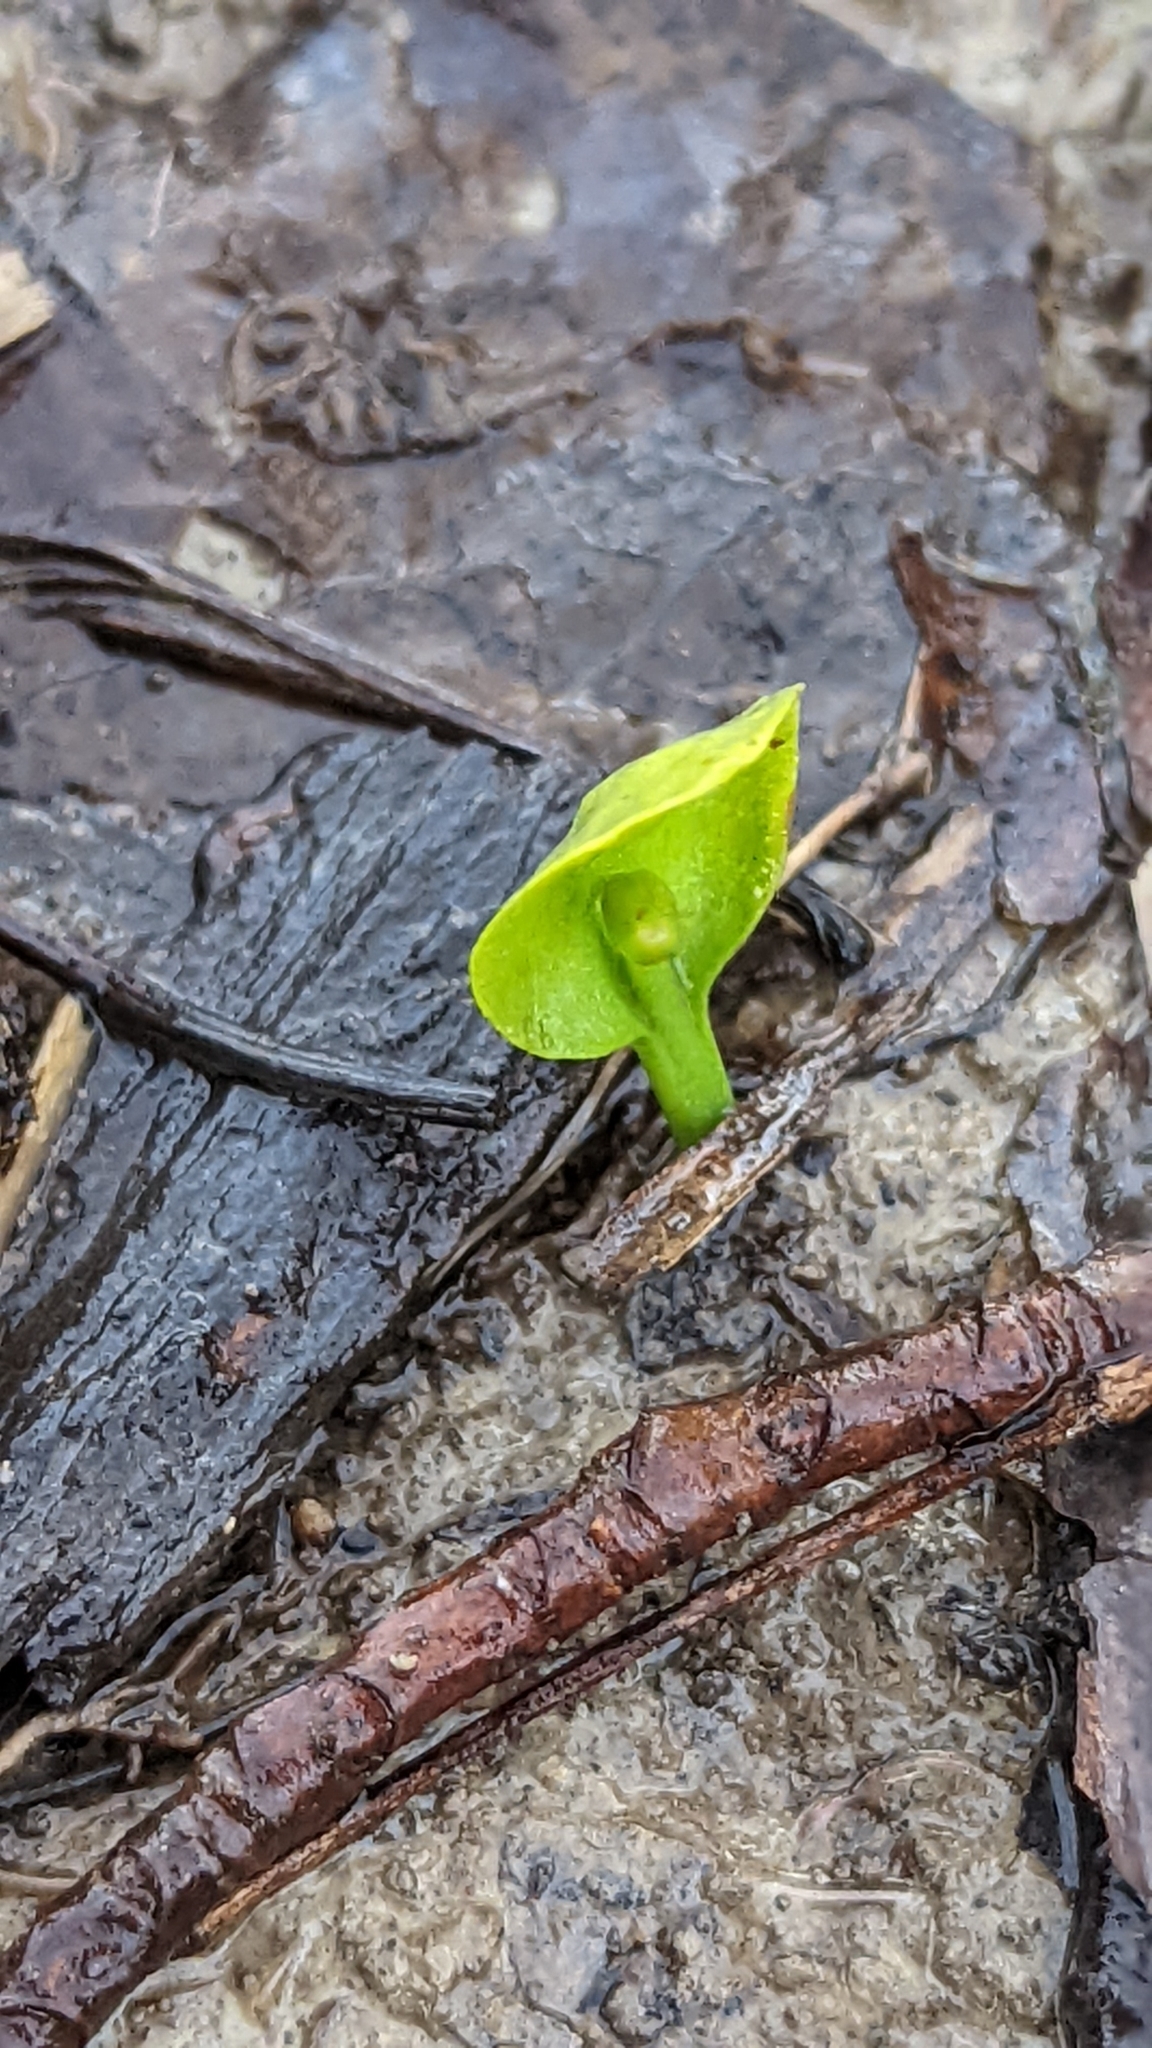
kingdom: Plantae
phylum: Tracheophyta
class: Polypodiopsida
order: Ophioglossales
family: Ophioglossaceae
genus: Ophioglossum
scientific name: Ophioglossum vulgatum
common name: Adder's-tongue
